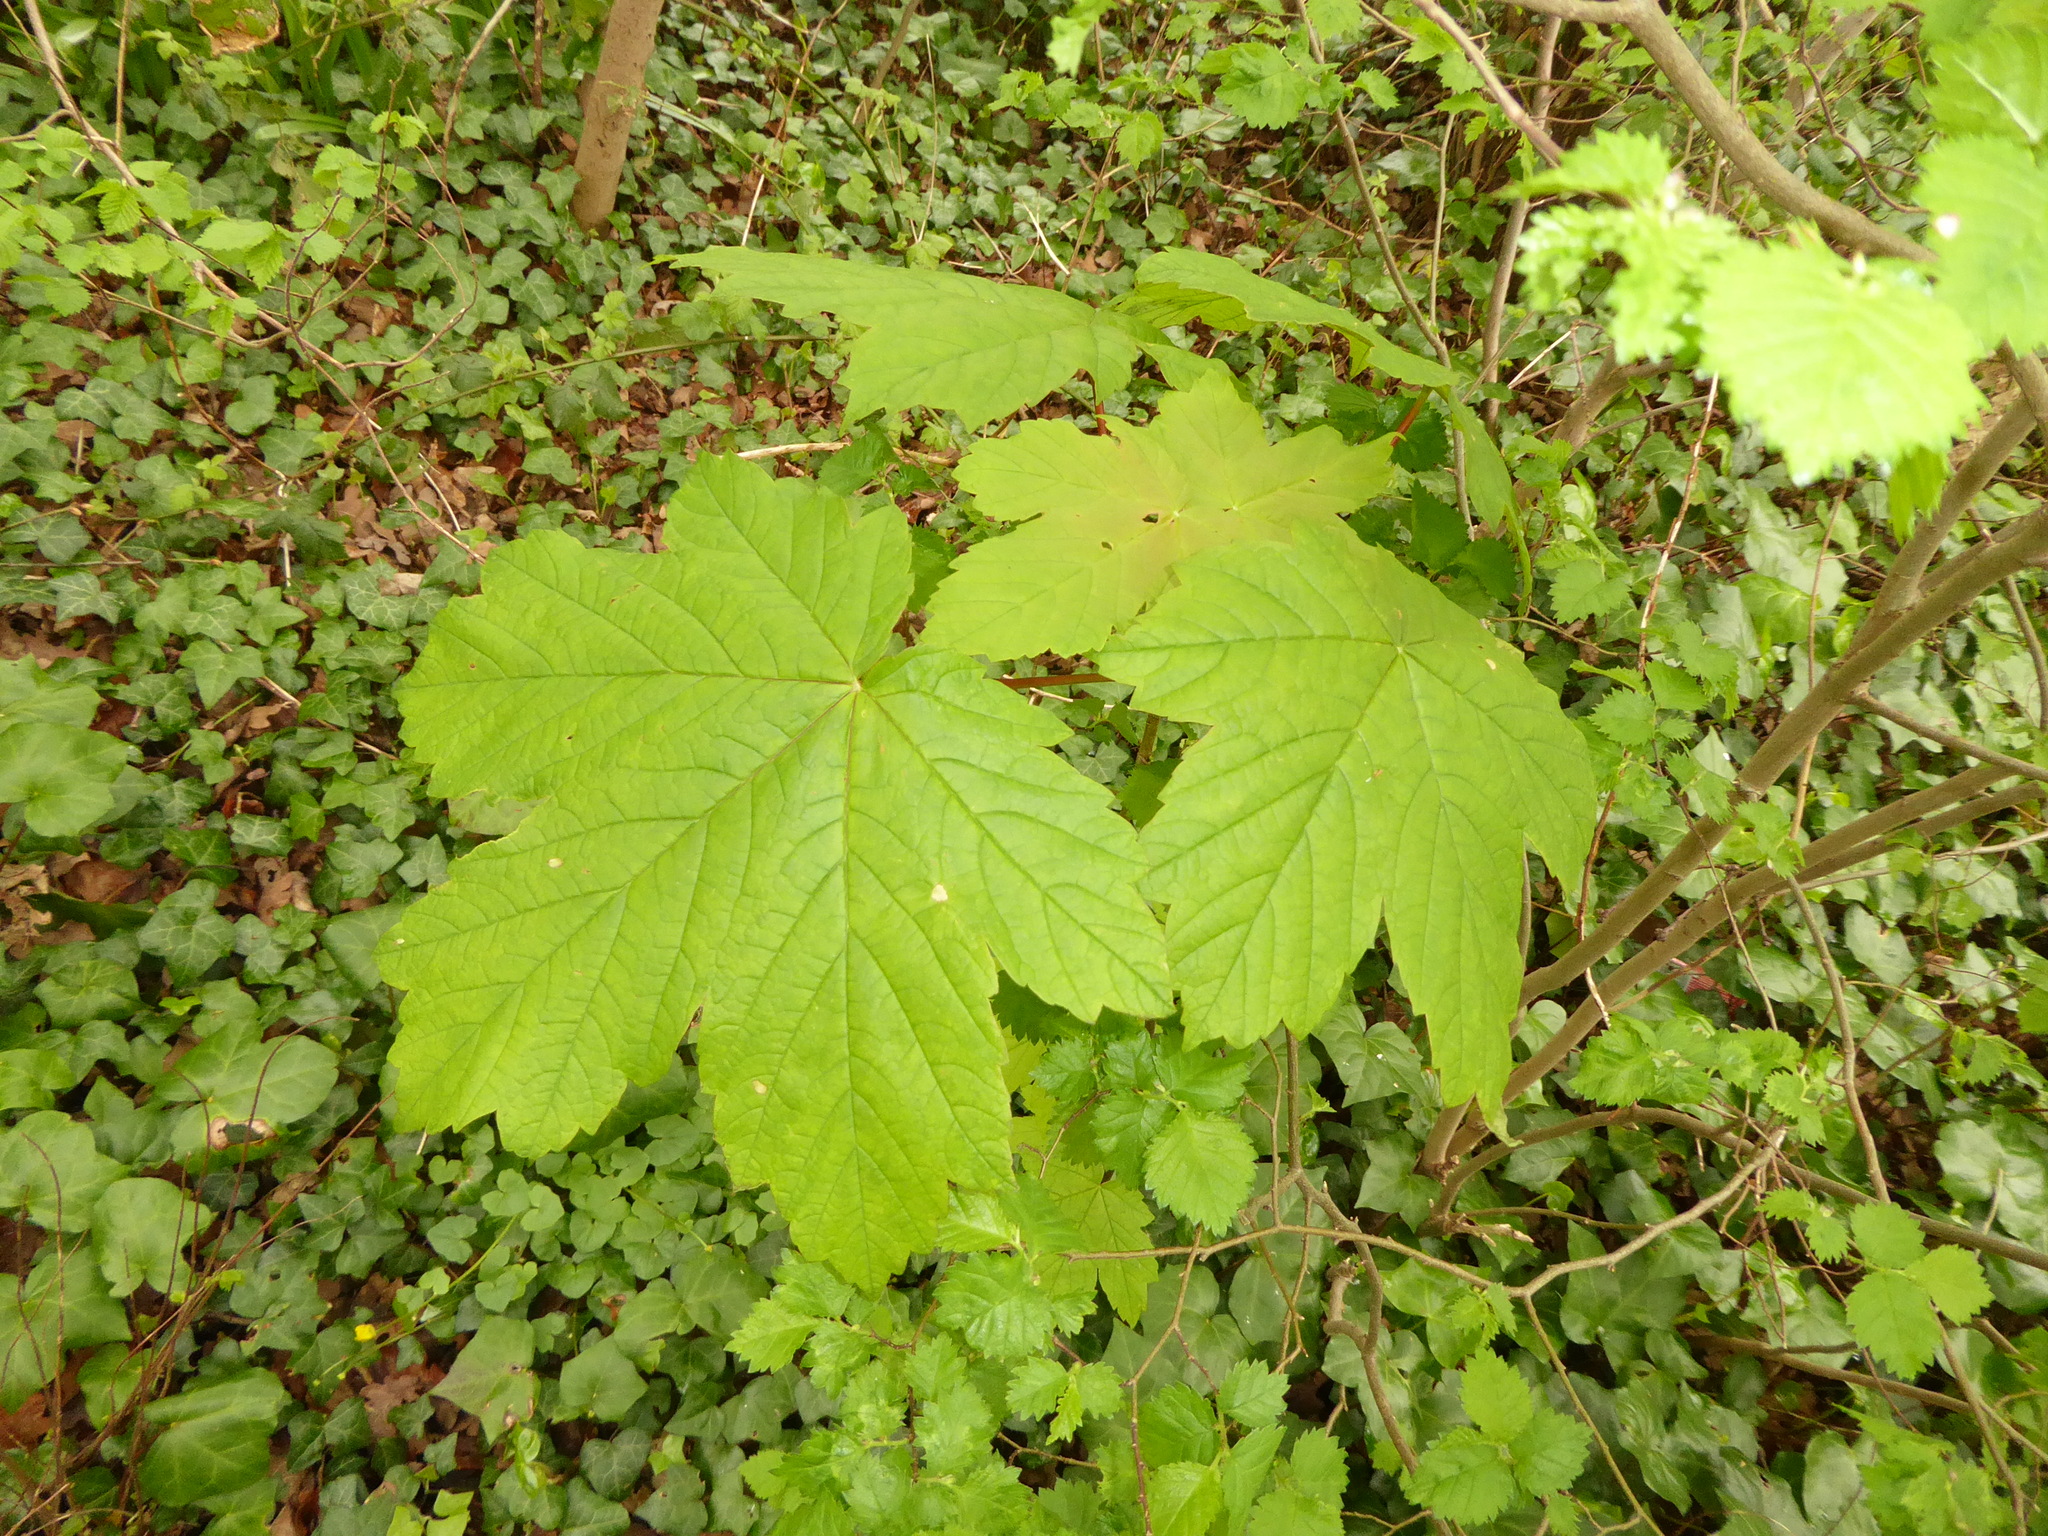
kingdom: Plantae
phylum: Tracheophyta
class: Magnoliopsida
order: Sapindales
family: Sapindaceae
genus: Acer
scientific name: Acer pseudoplatanus
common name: Sycamore
